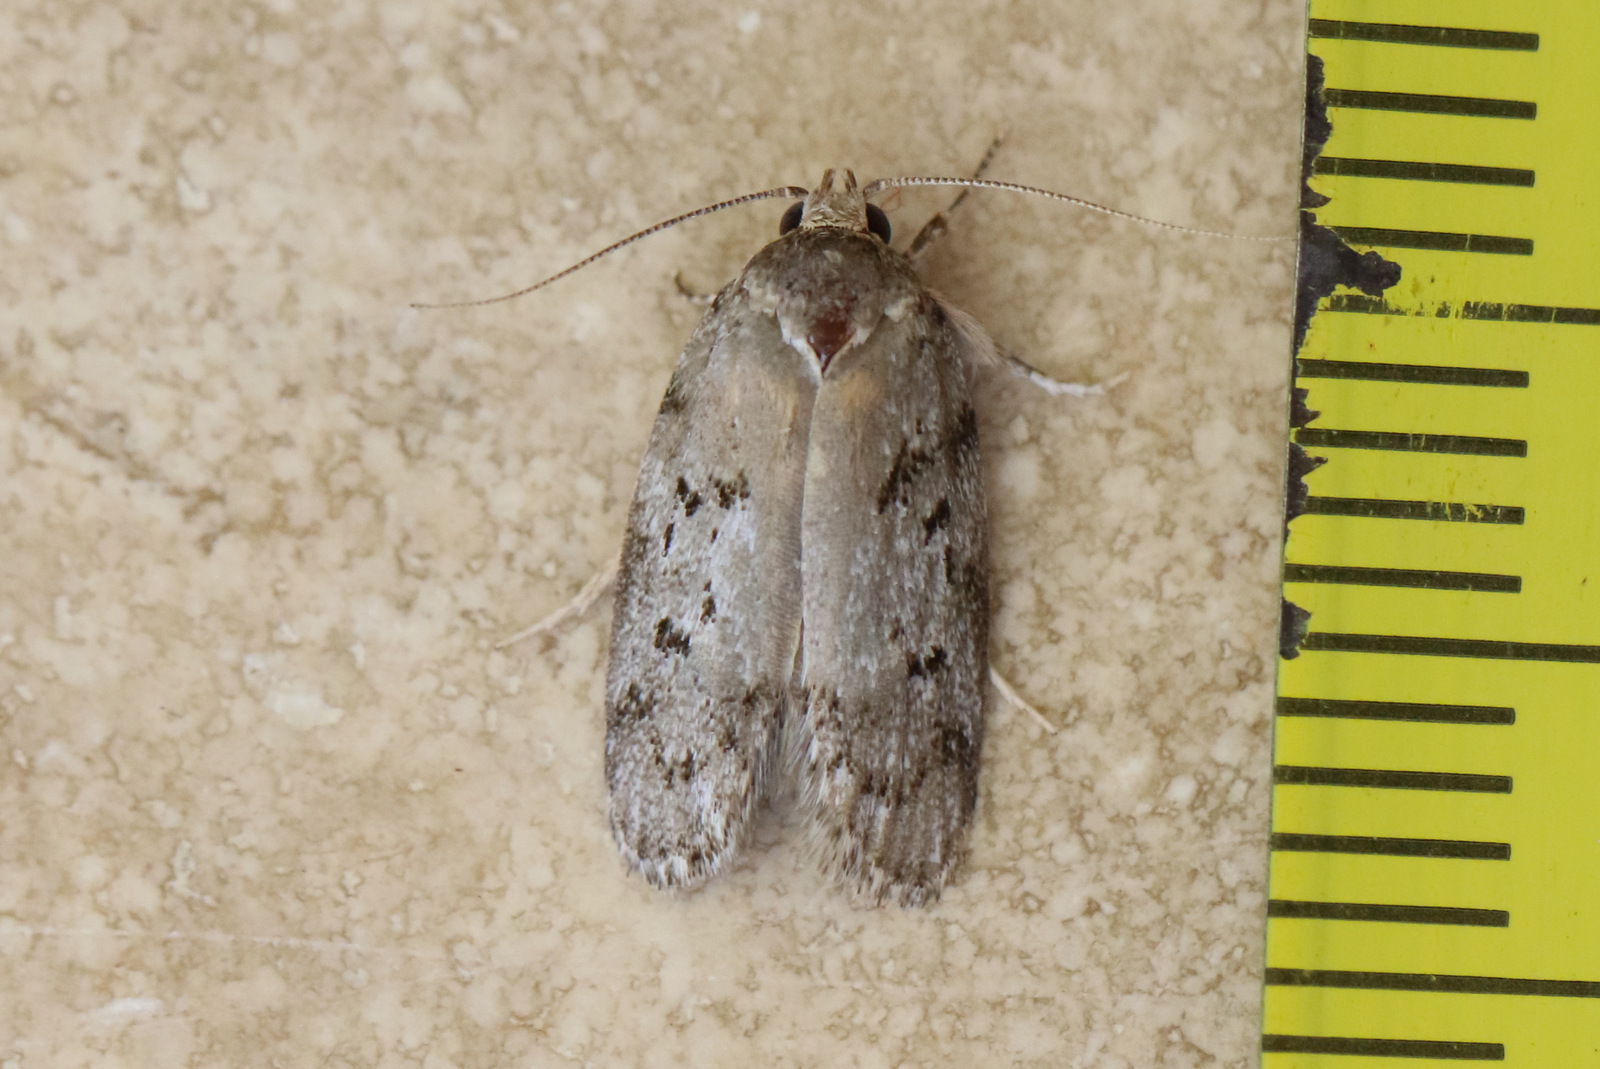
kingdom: Animalia
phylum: Arthropoda
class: Insecta
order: Lepidoptera
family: Oecophoridae
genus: Philobota
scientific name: Philobota philostaura
